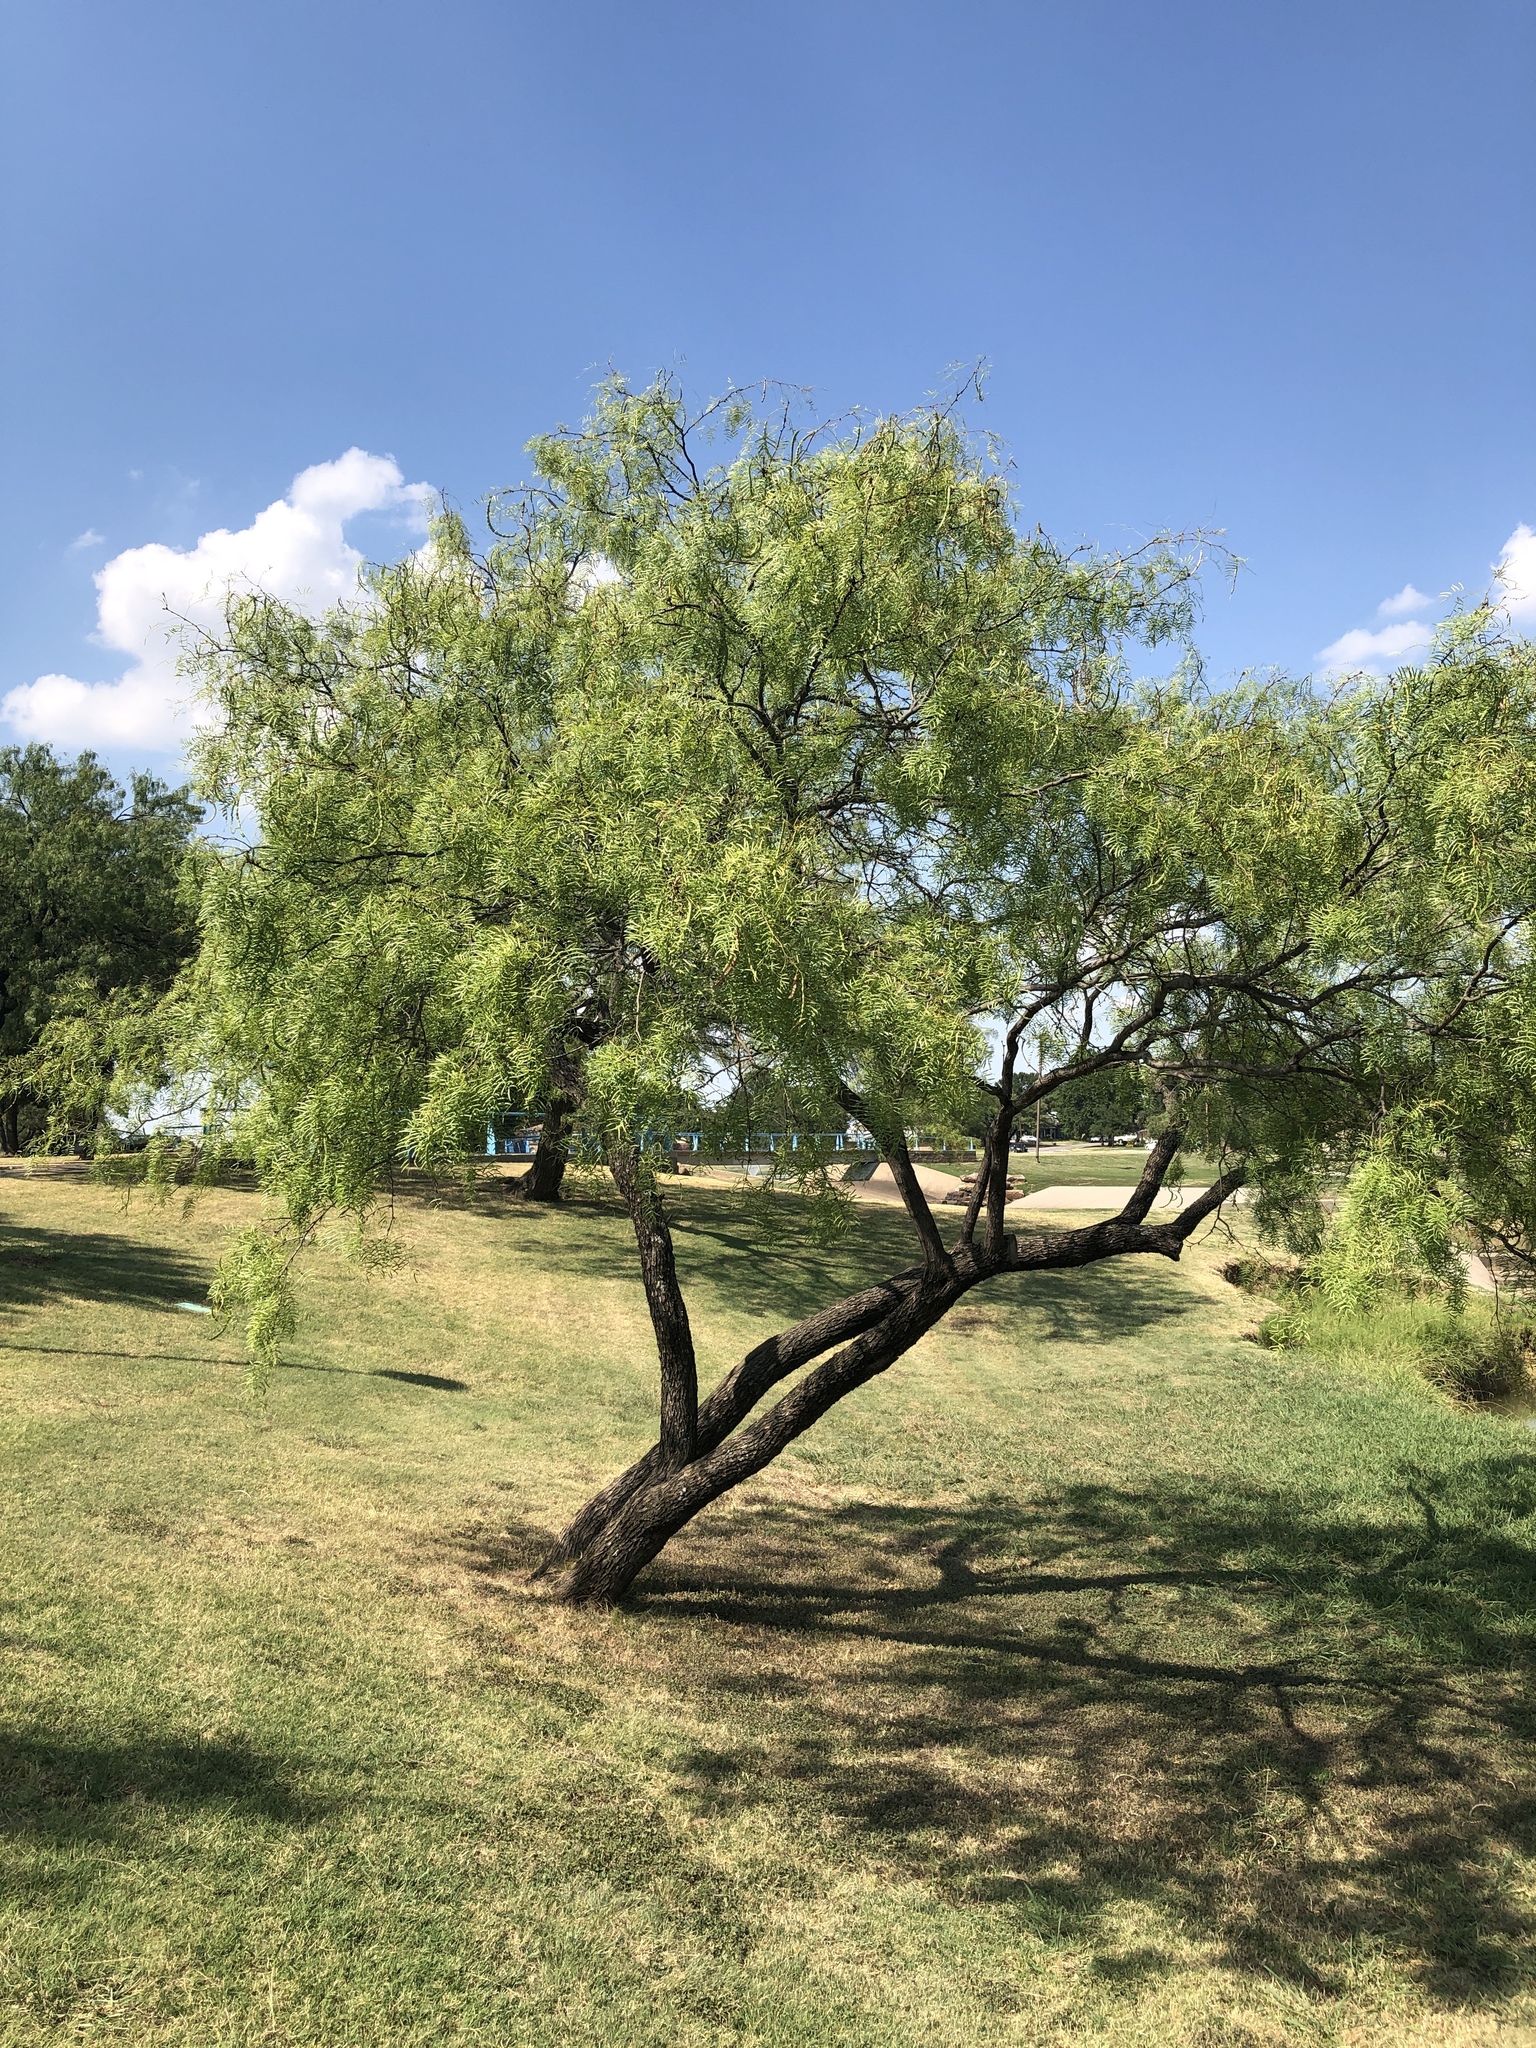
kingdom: Plantae
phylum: Tracheophyta
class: Magnoliopsida
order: Fabales
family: Fabaceae
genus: Prosopis
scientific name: Prosopis glandulosa
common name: Honey mesquite
